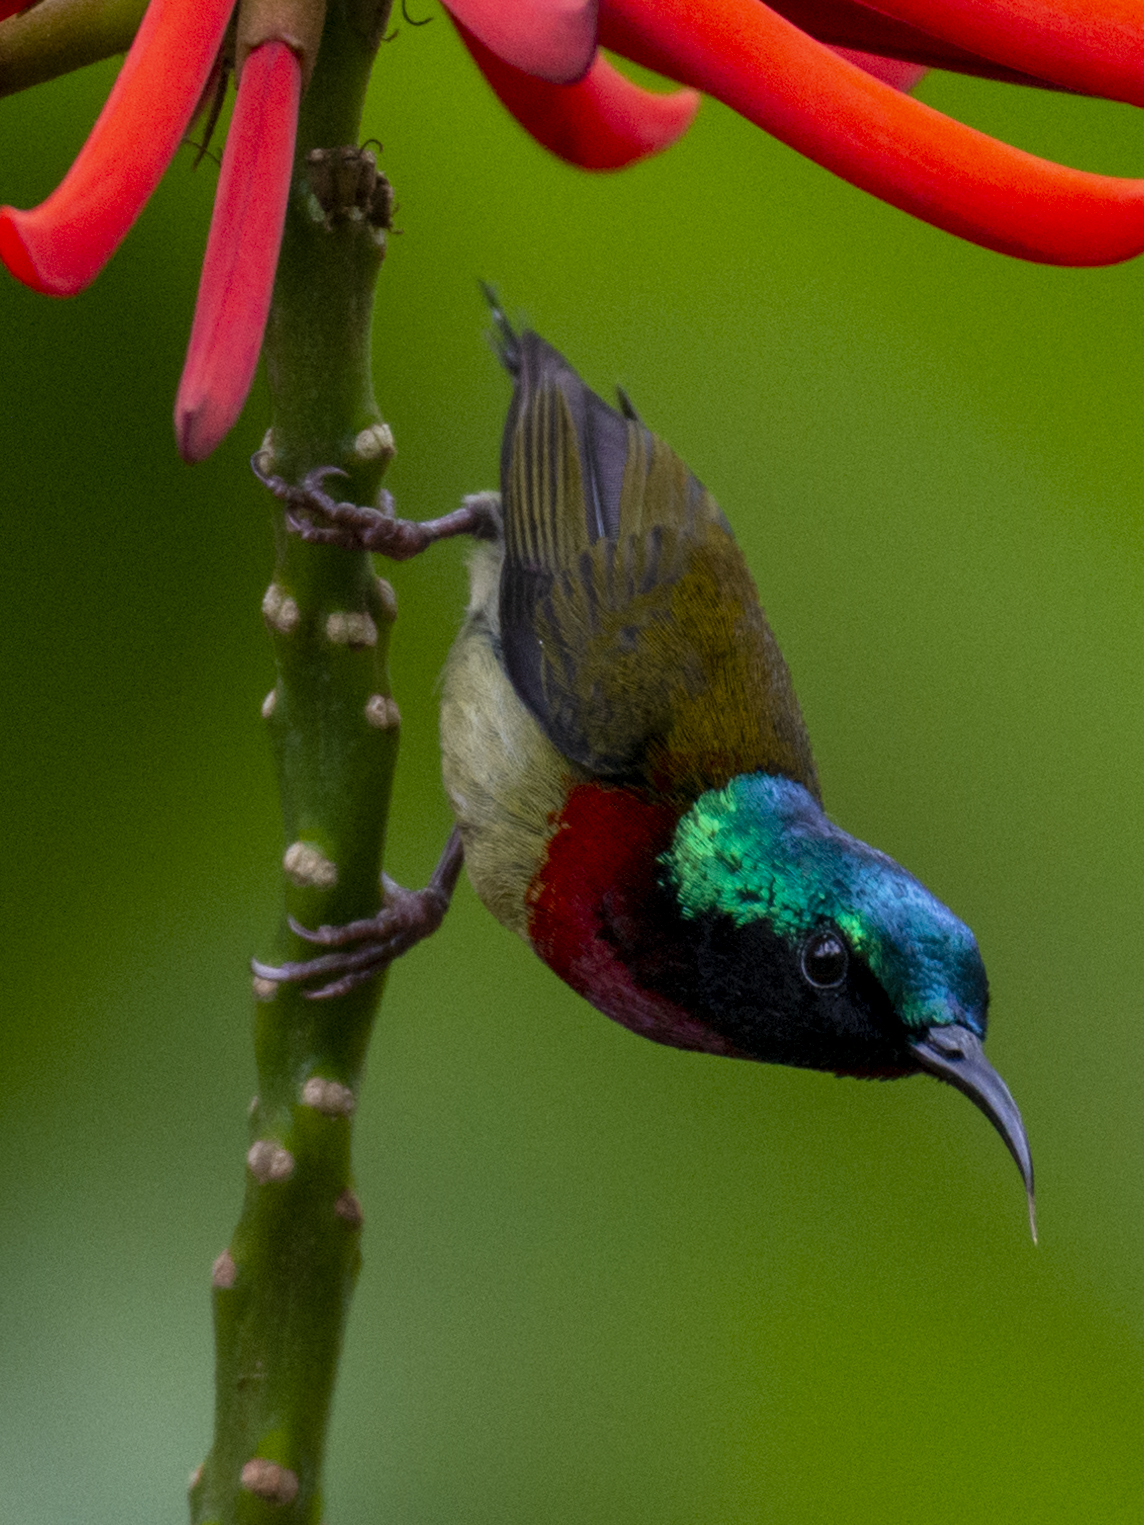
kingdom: Animalia
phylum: Chordata
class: Aves
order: Passeriformes
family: Nectariniidae
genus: Aethopyga
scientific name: Aethopyga christinae
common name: Fork-tailed sunbird
